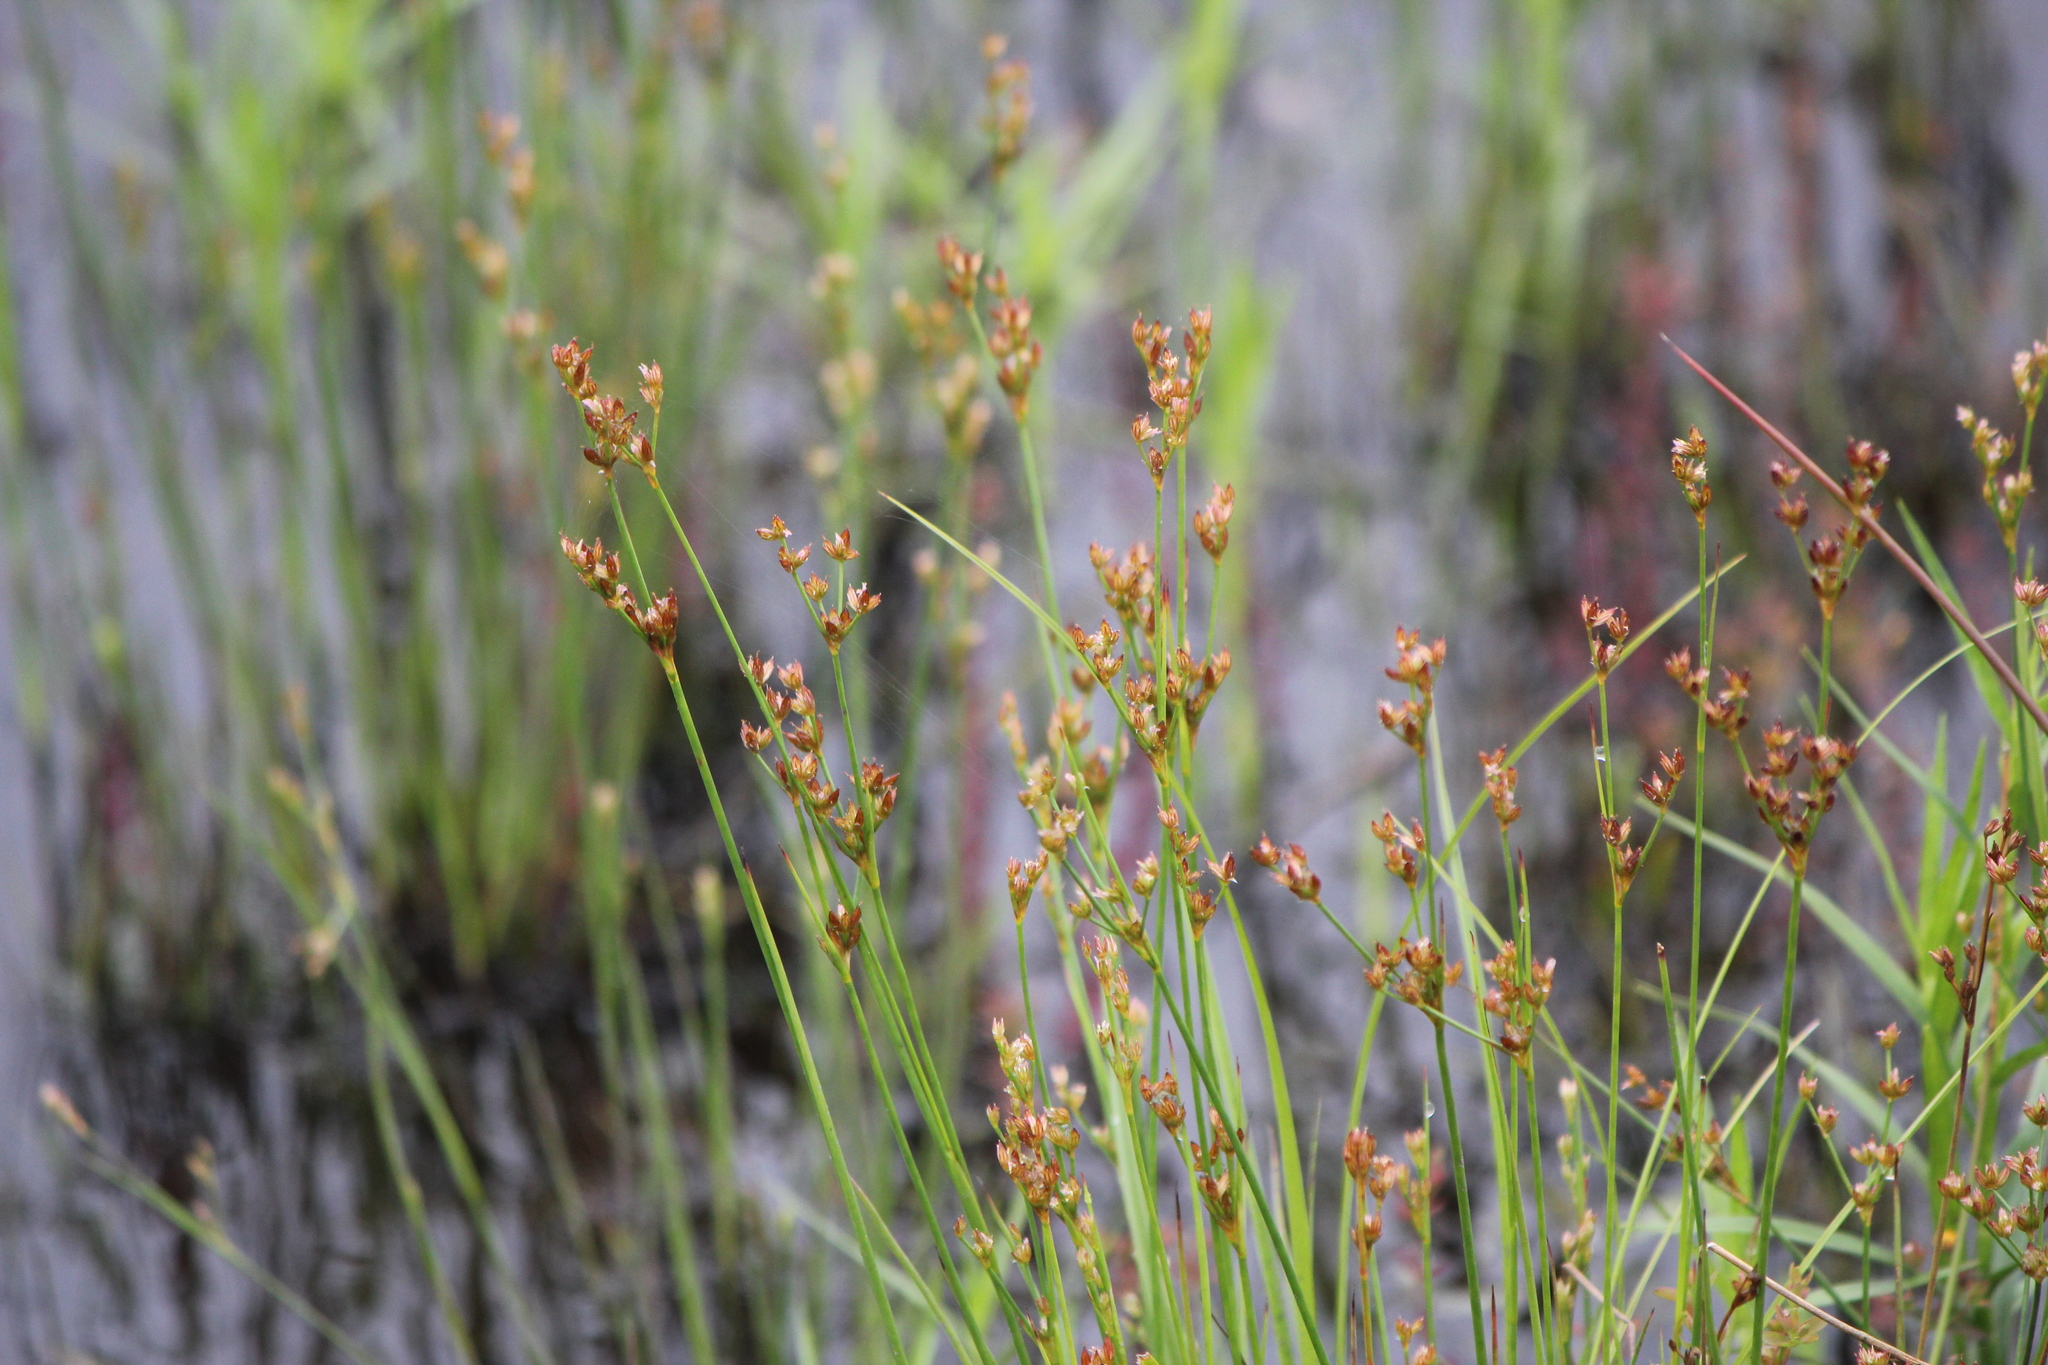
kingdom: Plantae
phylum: Tracheophyta
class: Liliopsida
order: Poales
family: Juncaceae
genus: Juncus
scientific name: Juncus tweedyi
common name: Narrow-panicled rush
